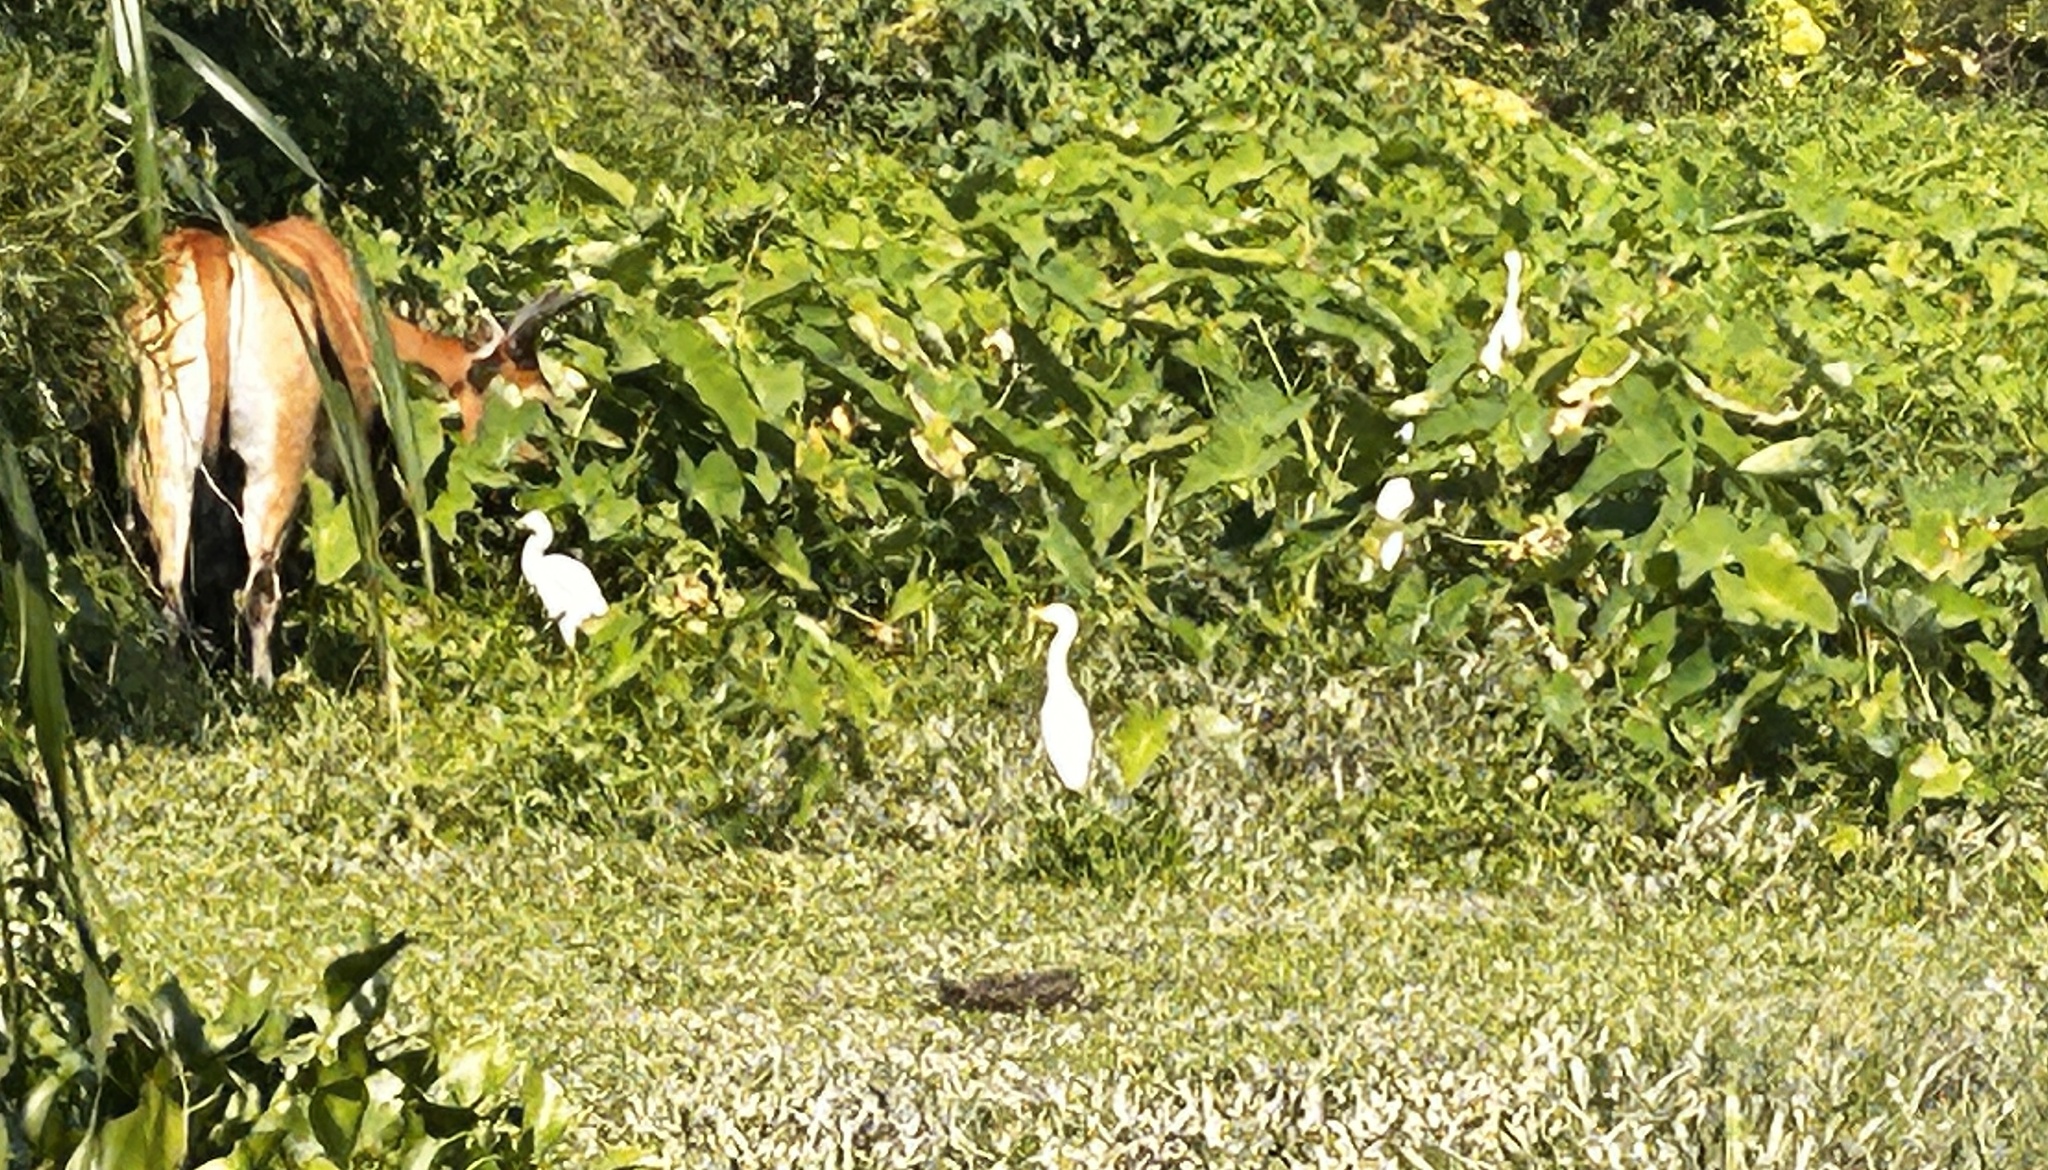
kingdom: Animalia
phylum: Chordata
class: Aves
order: Pelecaniformes
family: Ardeidae
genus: Bubulcus
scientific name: Bubulcus coromandus
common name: Eastern cattle egret
